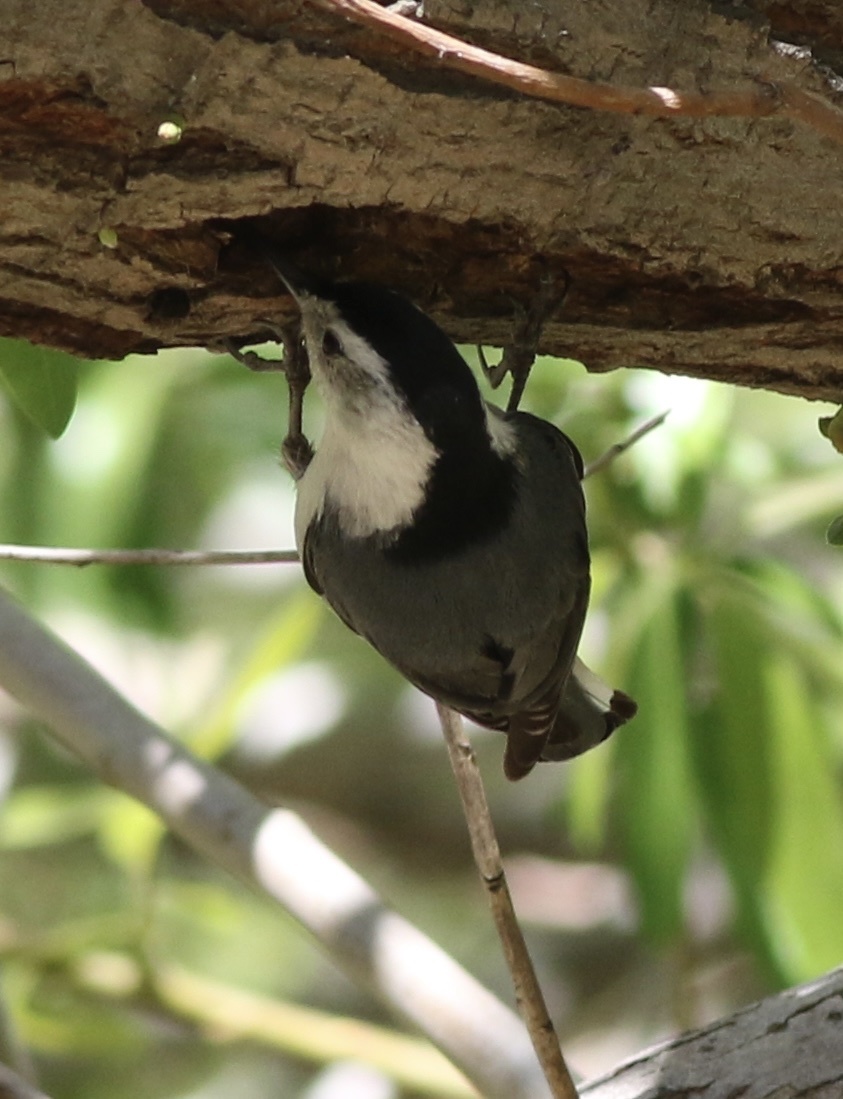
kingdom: Animalia
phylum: Chordata
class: Aves
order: Passeriformes
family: Sittidae
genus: Sitta
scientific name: Sitta carolinensis
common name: White-breasted nuthatch
